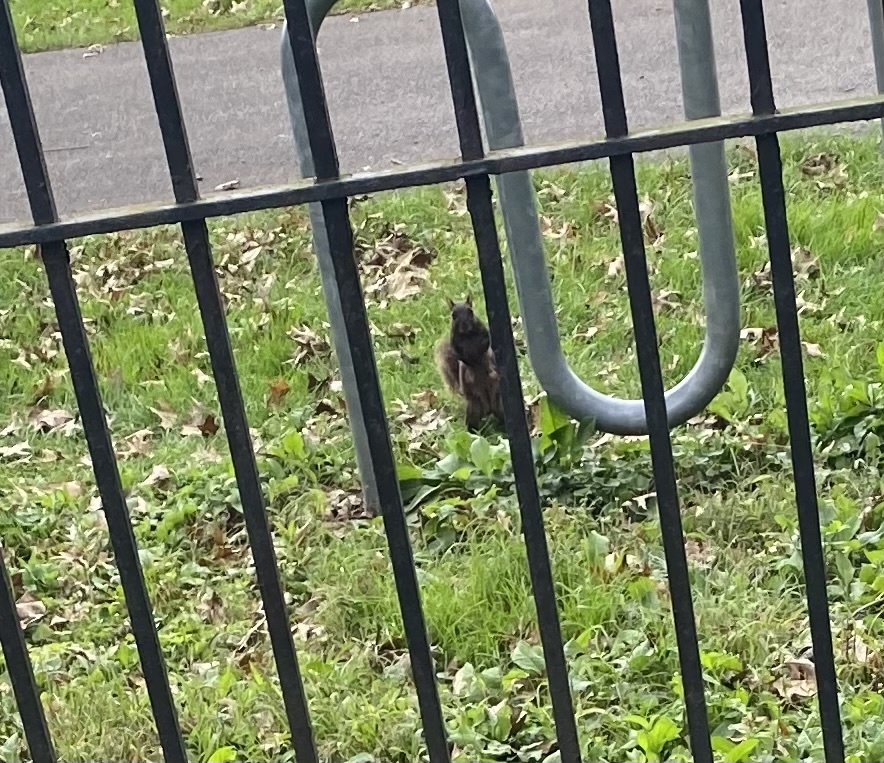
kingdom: Animalia
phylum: Chordata
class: Mammalia
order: Rodentia
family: Sciuridae
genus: Sciurus
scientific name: Sciurus carolinensis
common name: Eastern gray squirrel
